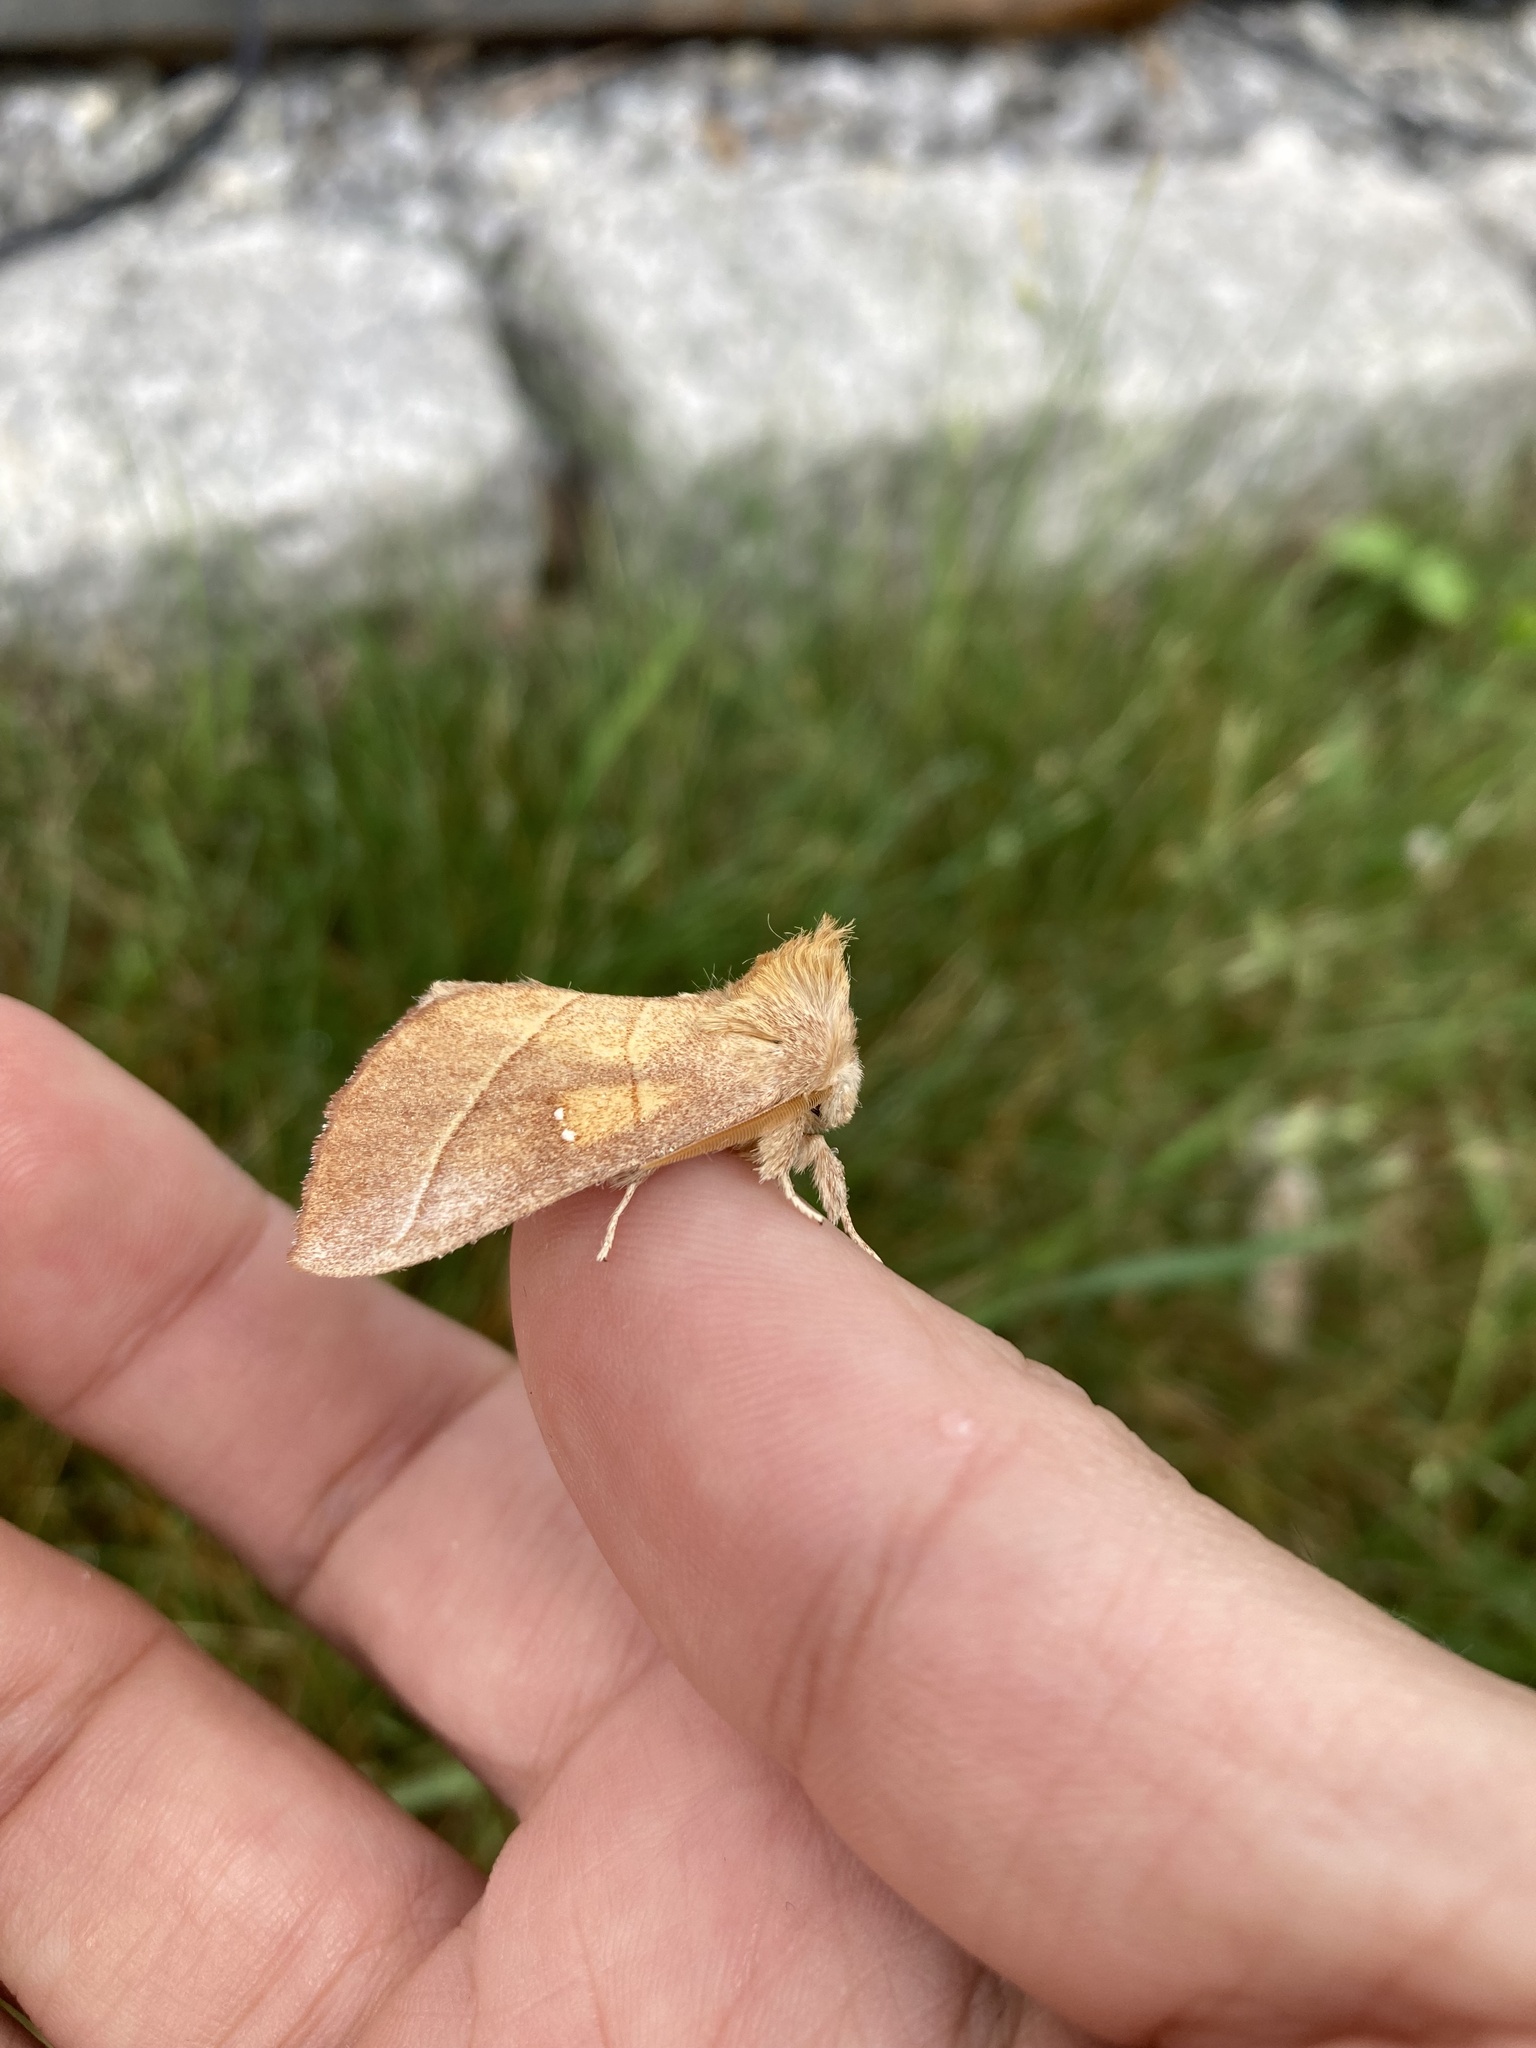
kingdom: Animalia
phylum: Arthropoda
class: Insecta
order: Lepidoptera
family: Notodontidae
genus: Nadata
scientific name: Nadata gibbosa
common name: White-dotted prominent
